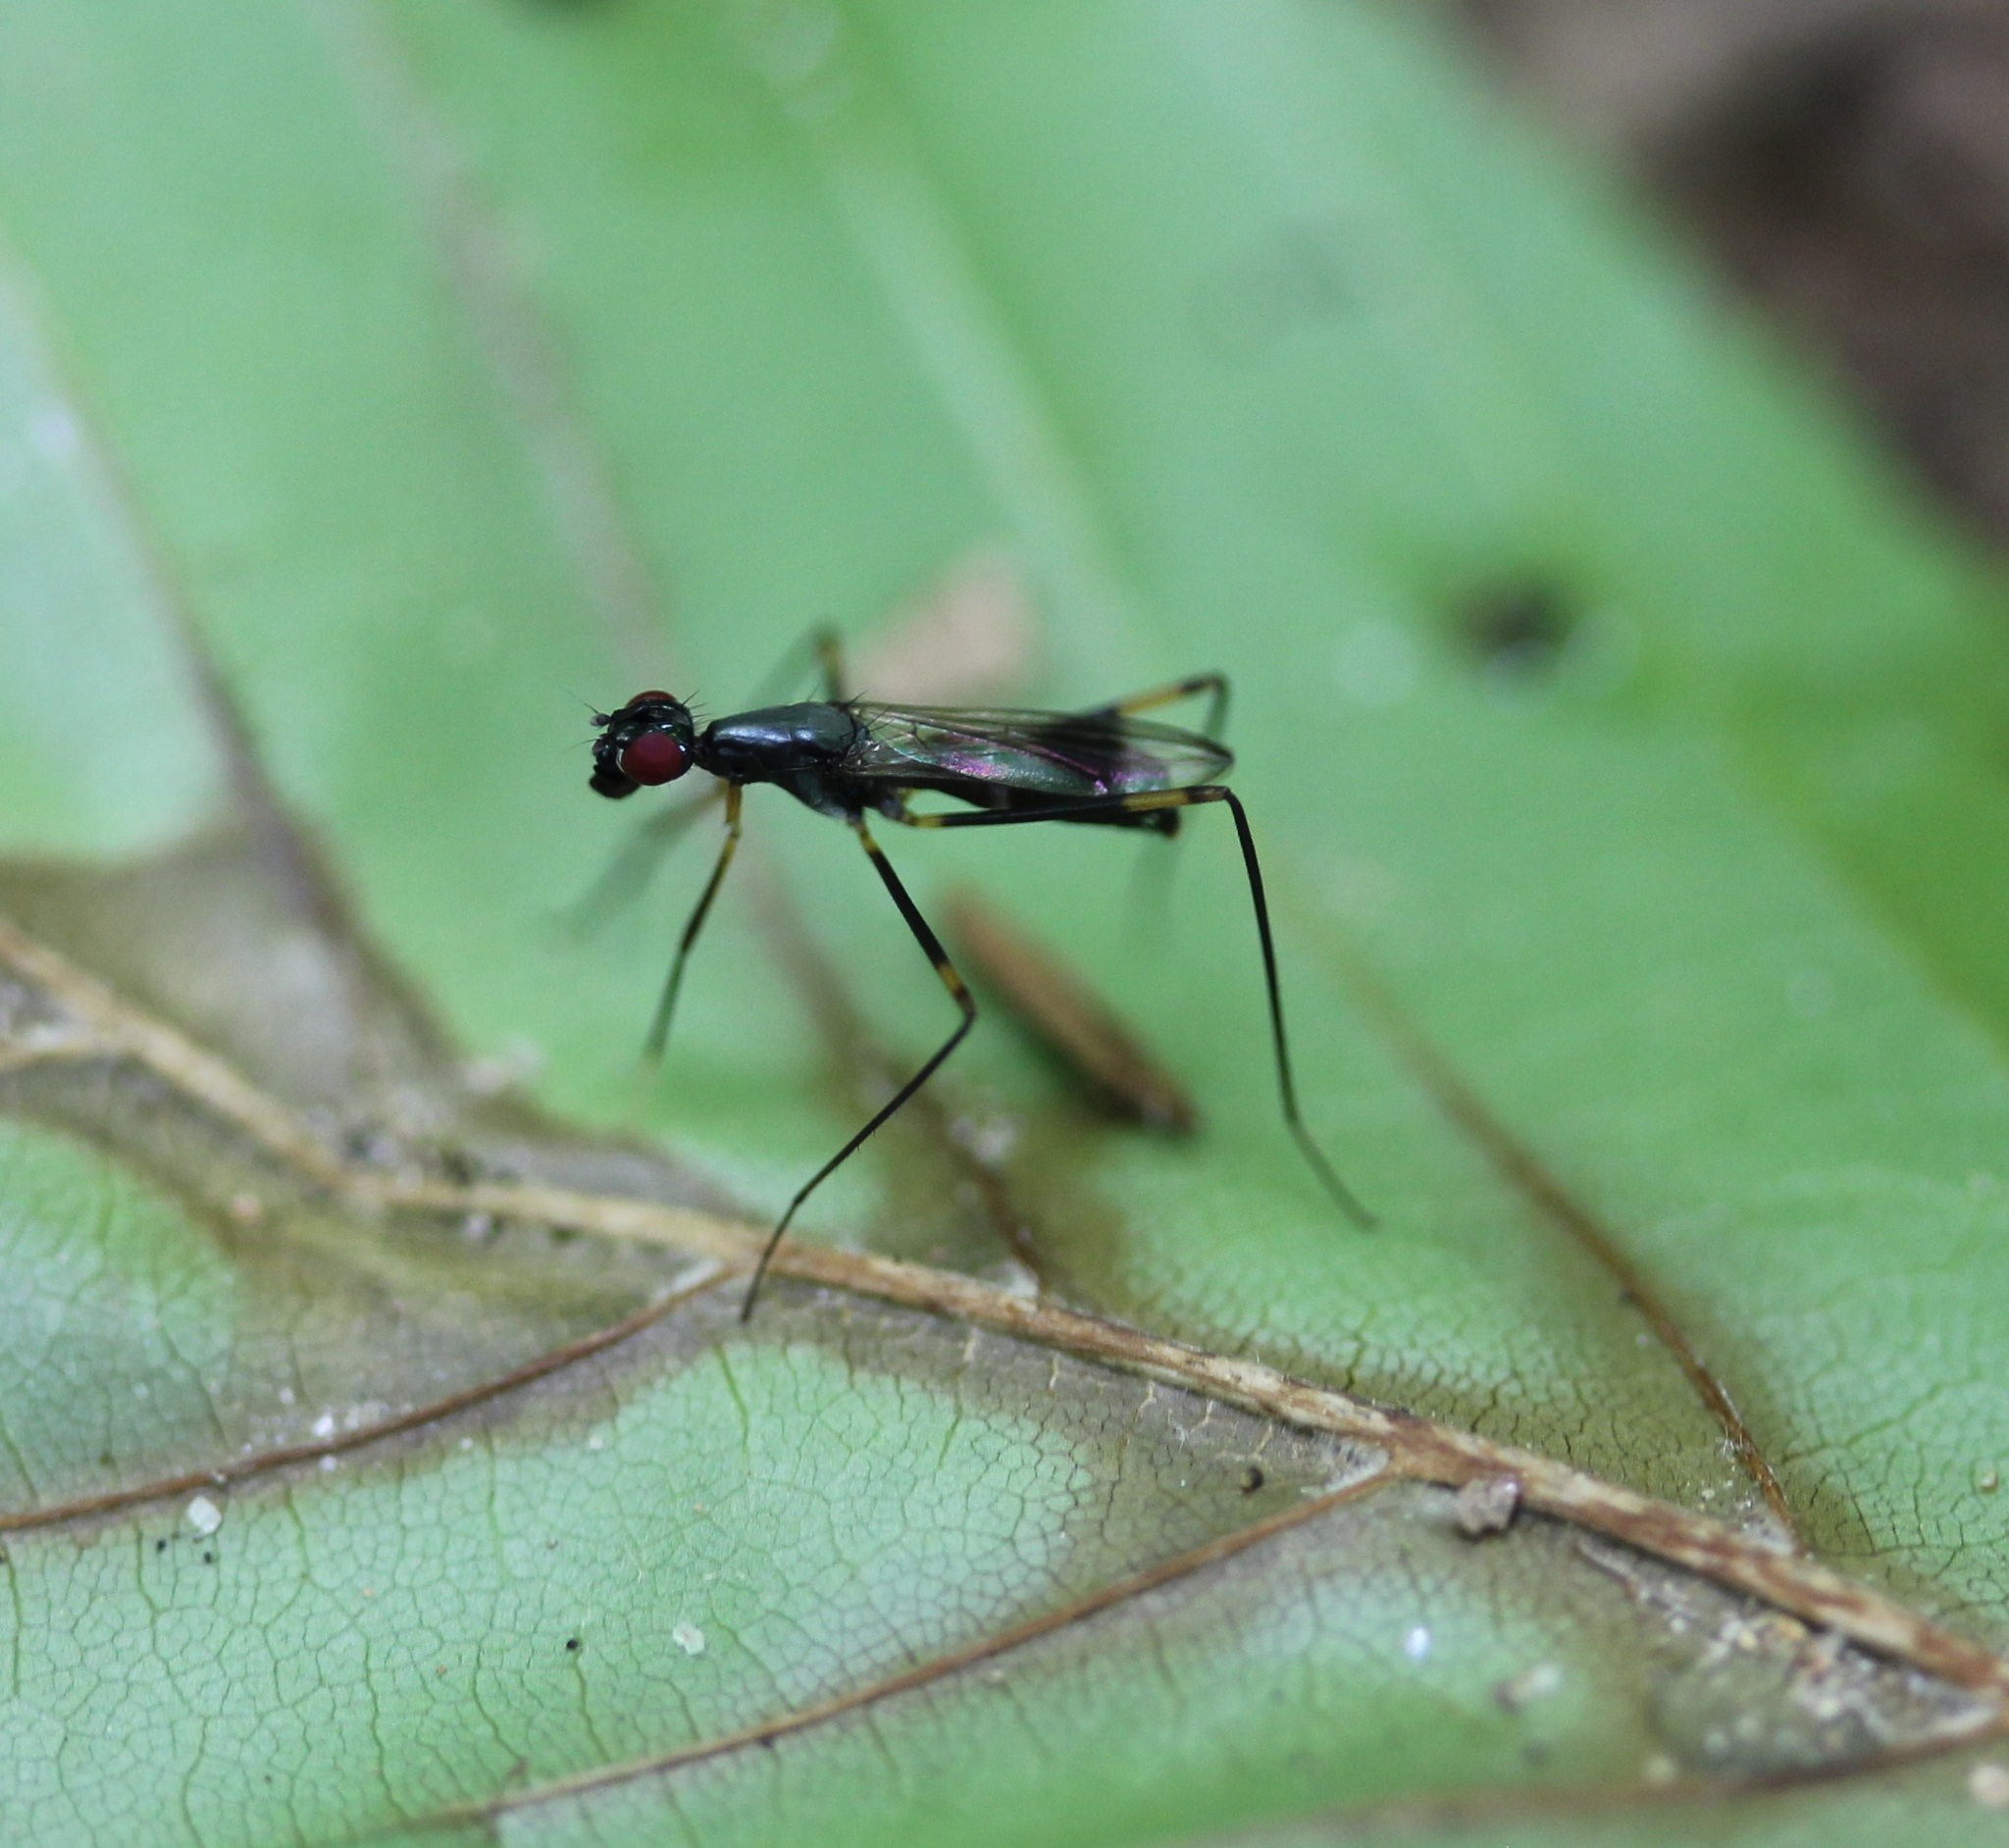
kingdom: Animalia
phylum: Arthropoda
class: Insecta
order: Diptera
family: Micropezidae
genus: Rainieria
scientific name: Rainieria antennaepes
